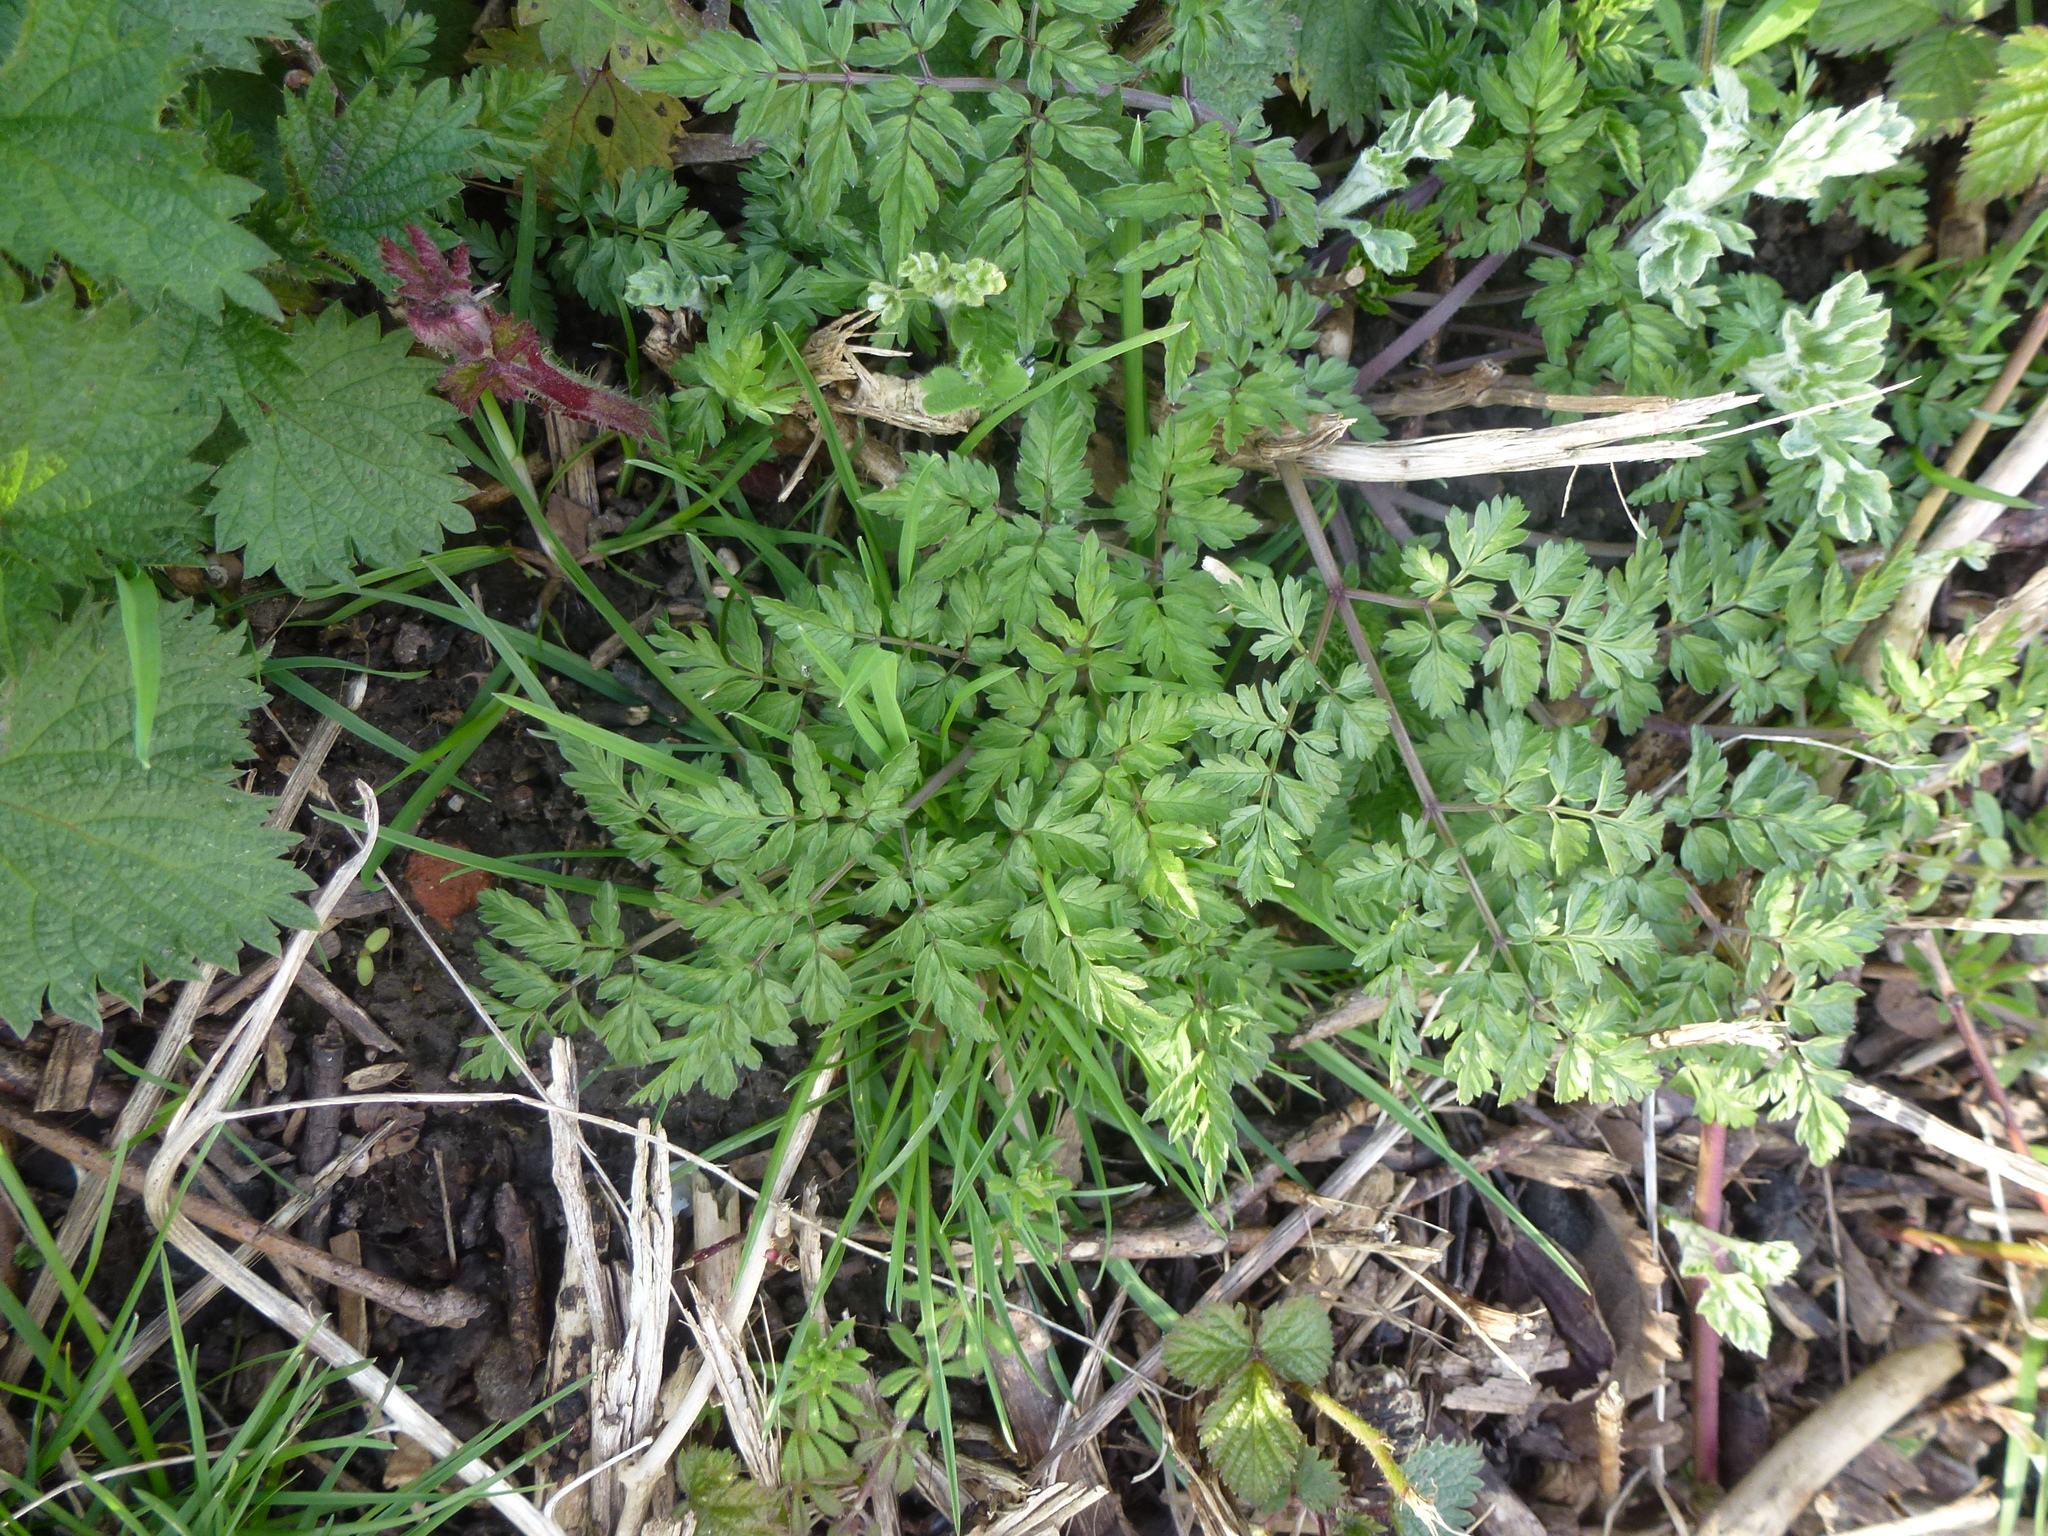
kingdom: Plantae
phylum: Tracheophyta
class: Magnoliopsida
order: Apiales
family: Apiaceae
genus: Anthriscus
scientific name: Anthriscus sylvestris
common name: Cow parsley
